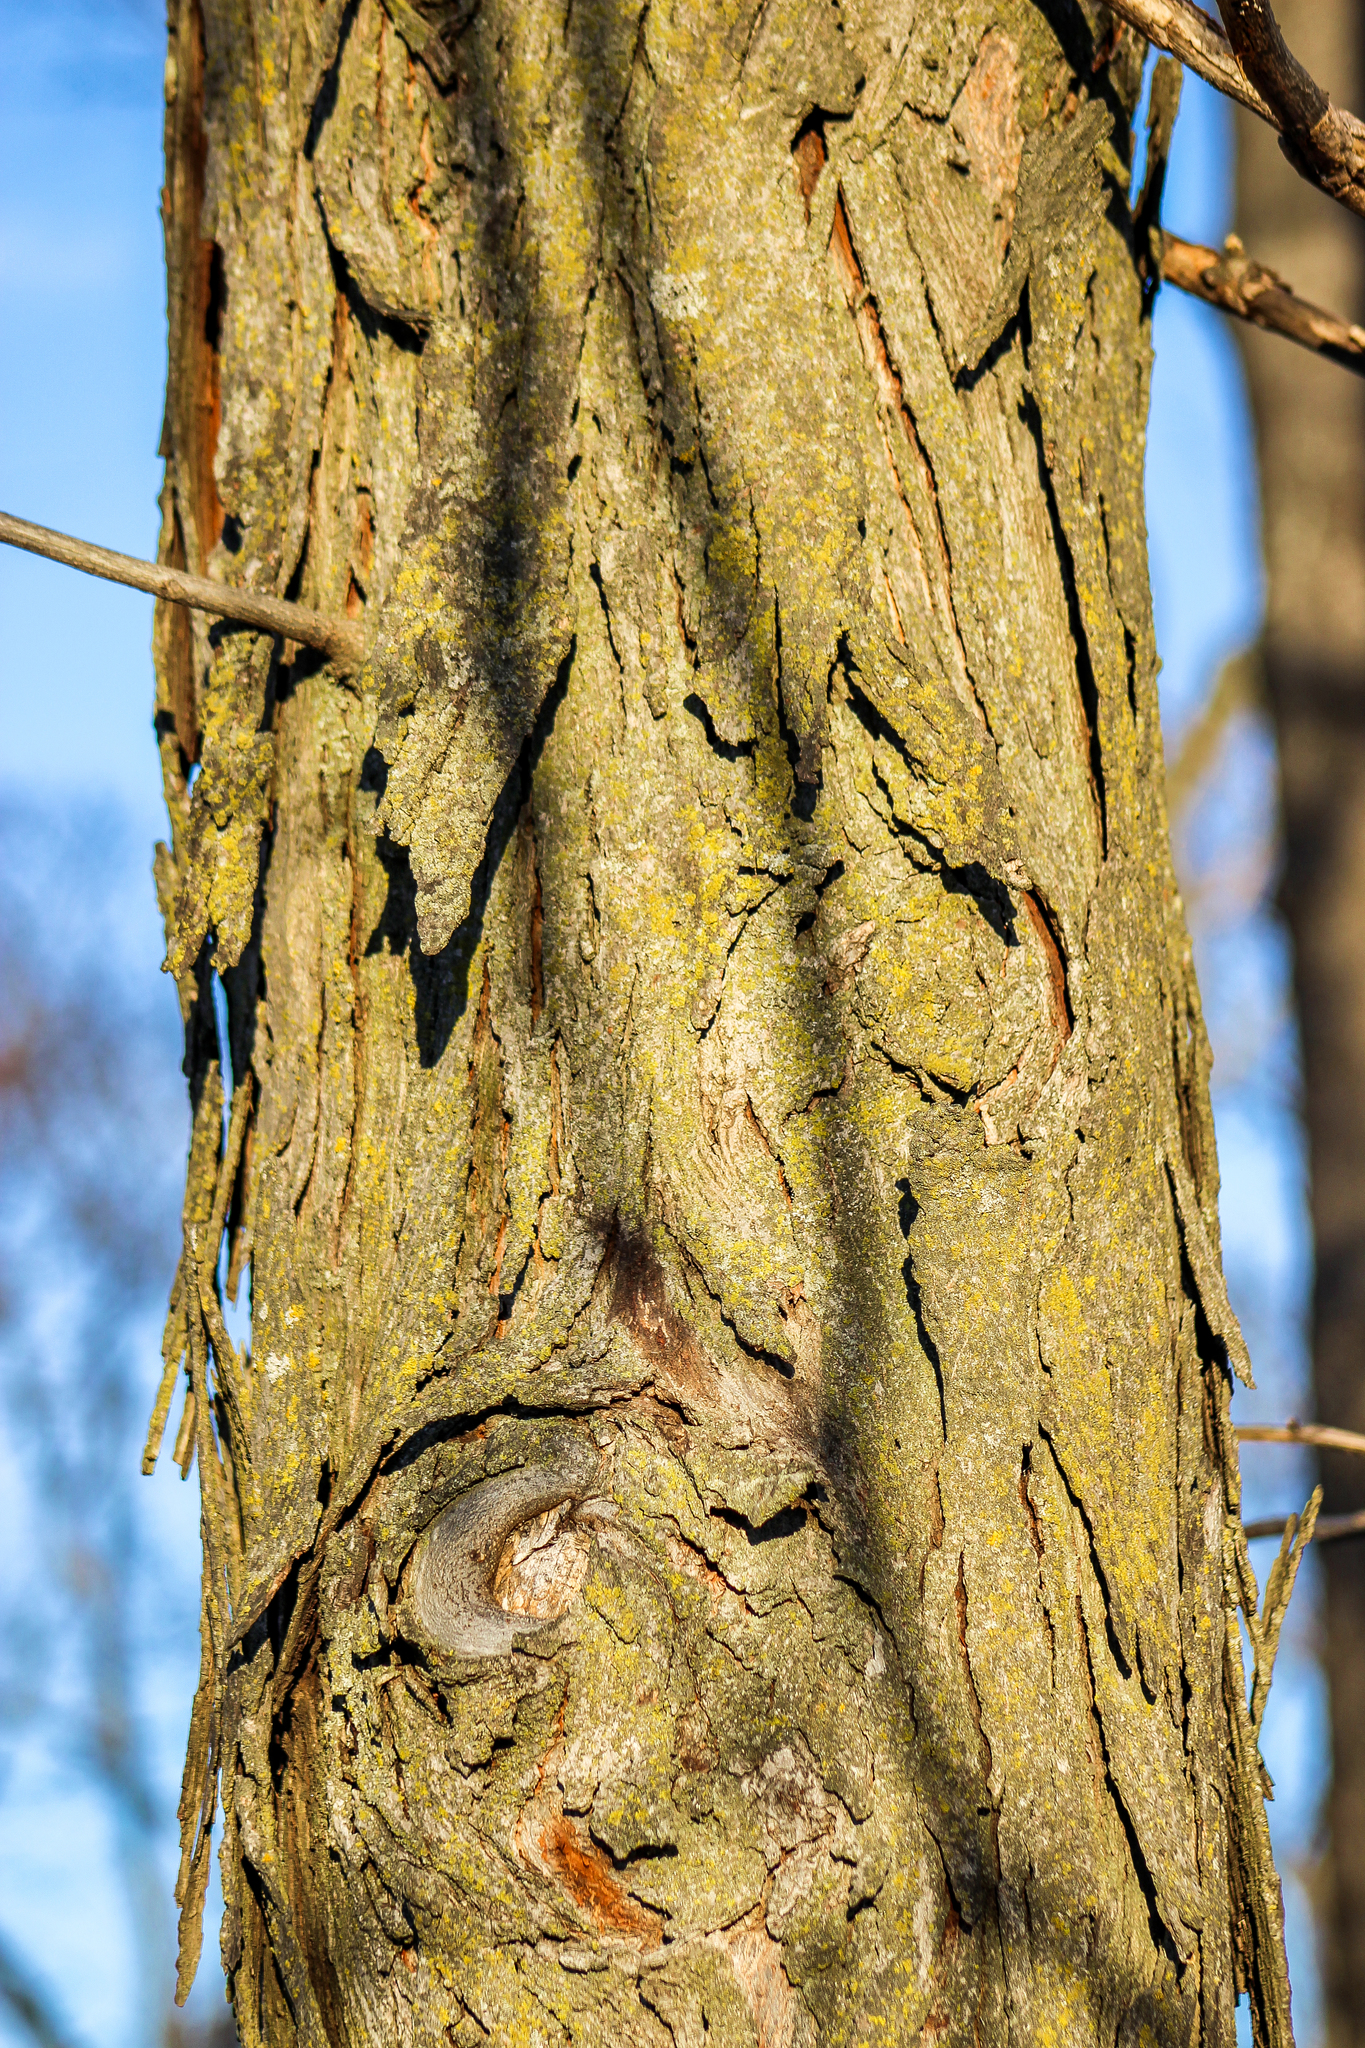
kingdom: Plantae
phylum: Tracheophyta
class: Magnoliopsida
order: Fagales
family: Juglandaceae
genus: Carya
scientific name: Carya ovata
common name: Shagbark hickory
